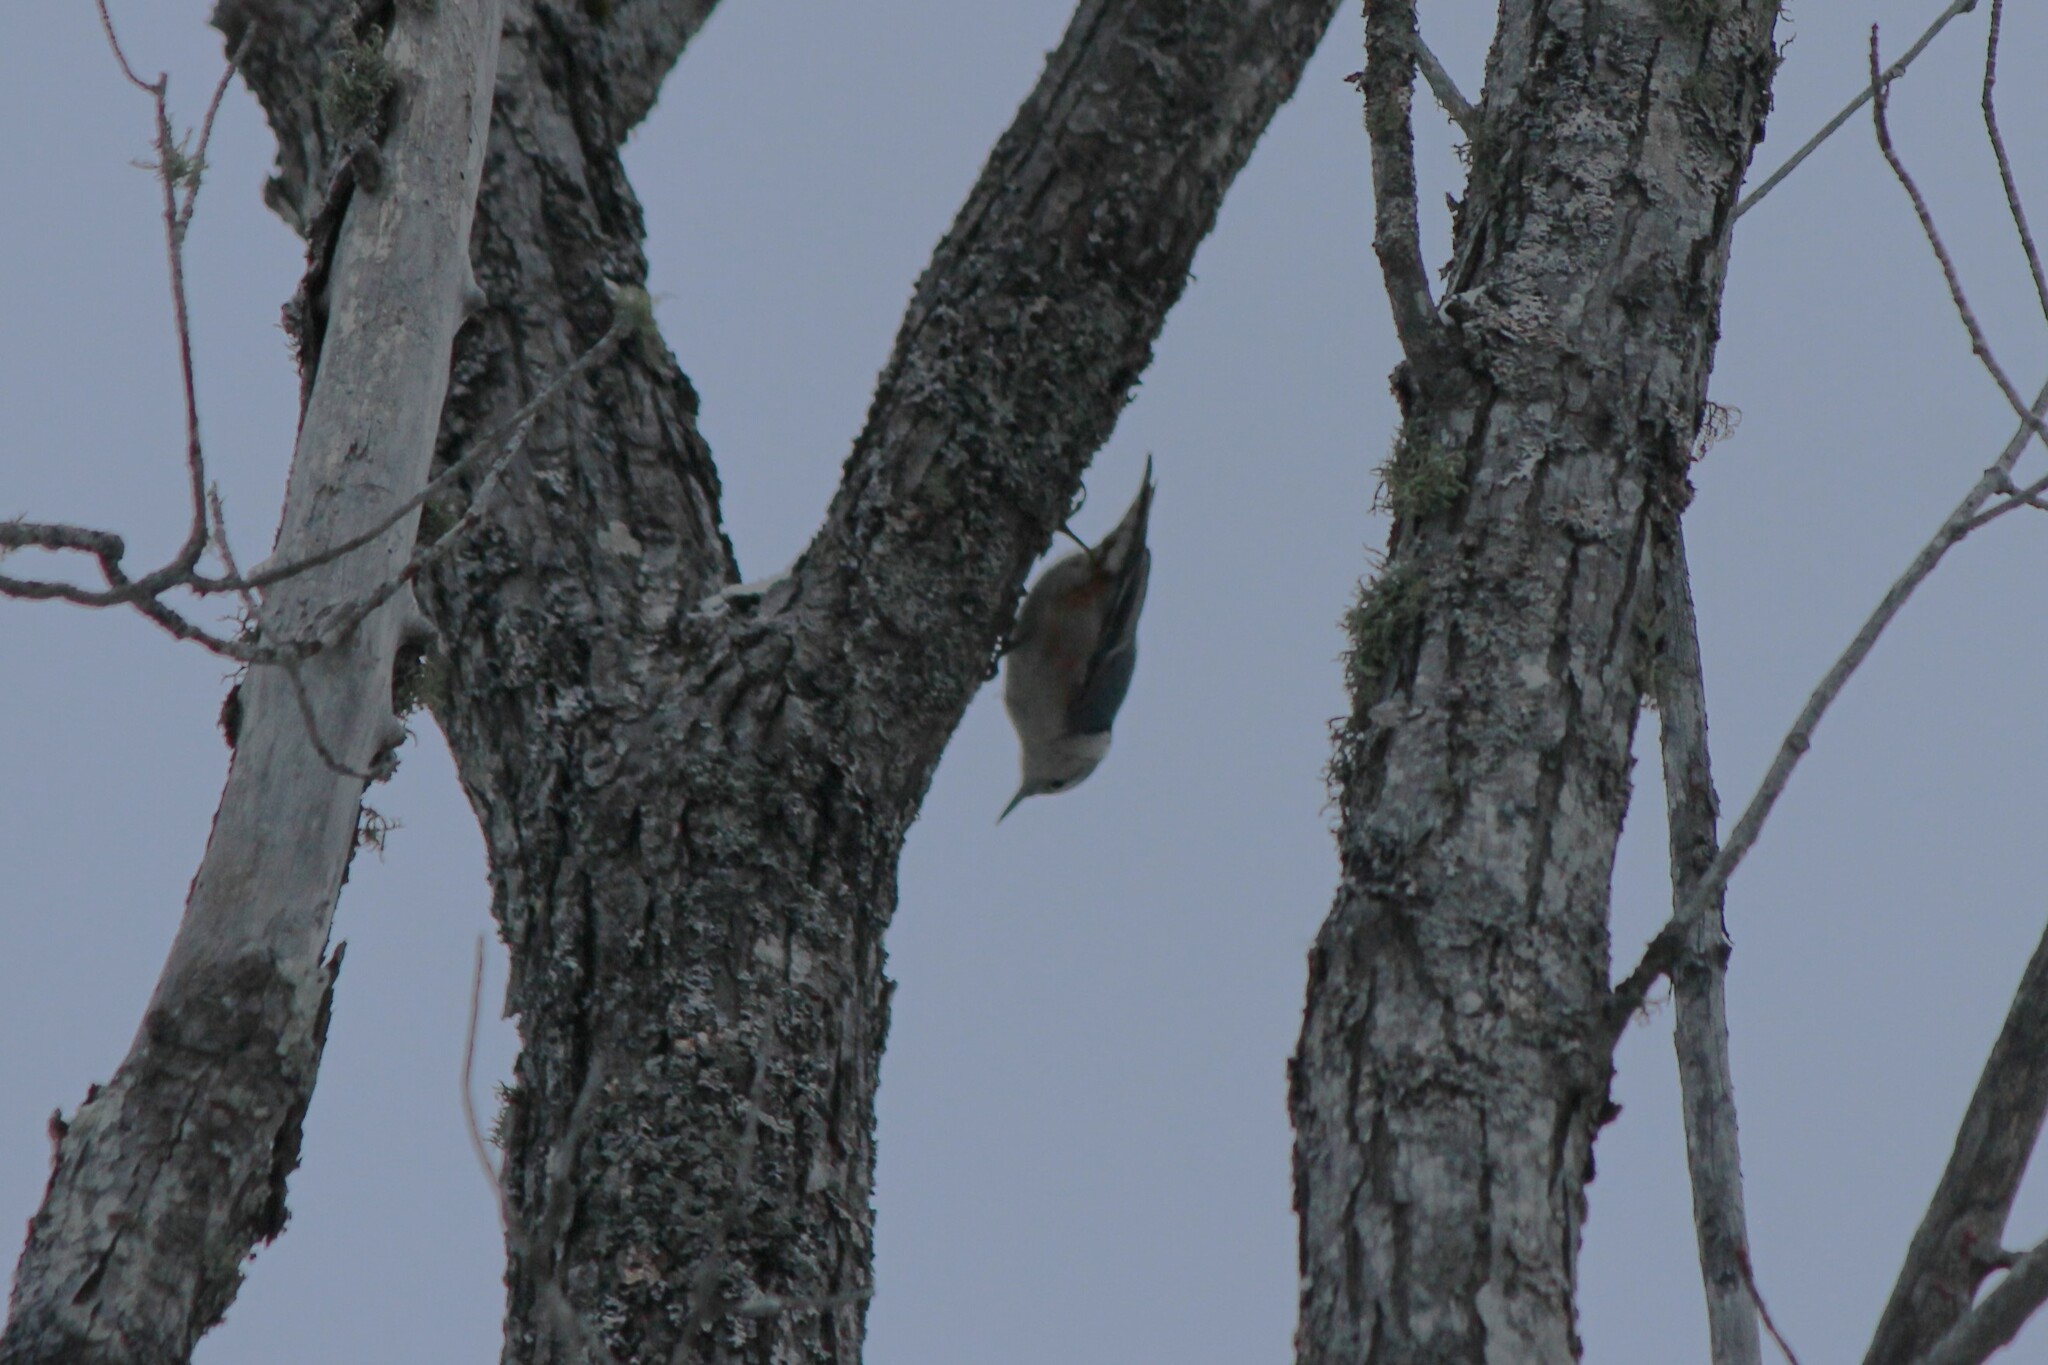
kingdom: Animalia
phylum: Chordata
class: Aves
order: Passeriformes
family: Sittidae
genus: Sitta
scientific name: Sitta carolinensis
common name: White-breasted nuthatch
